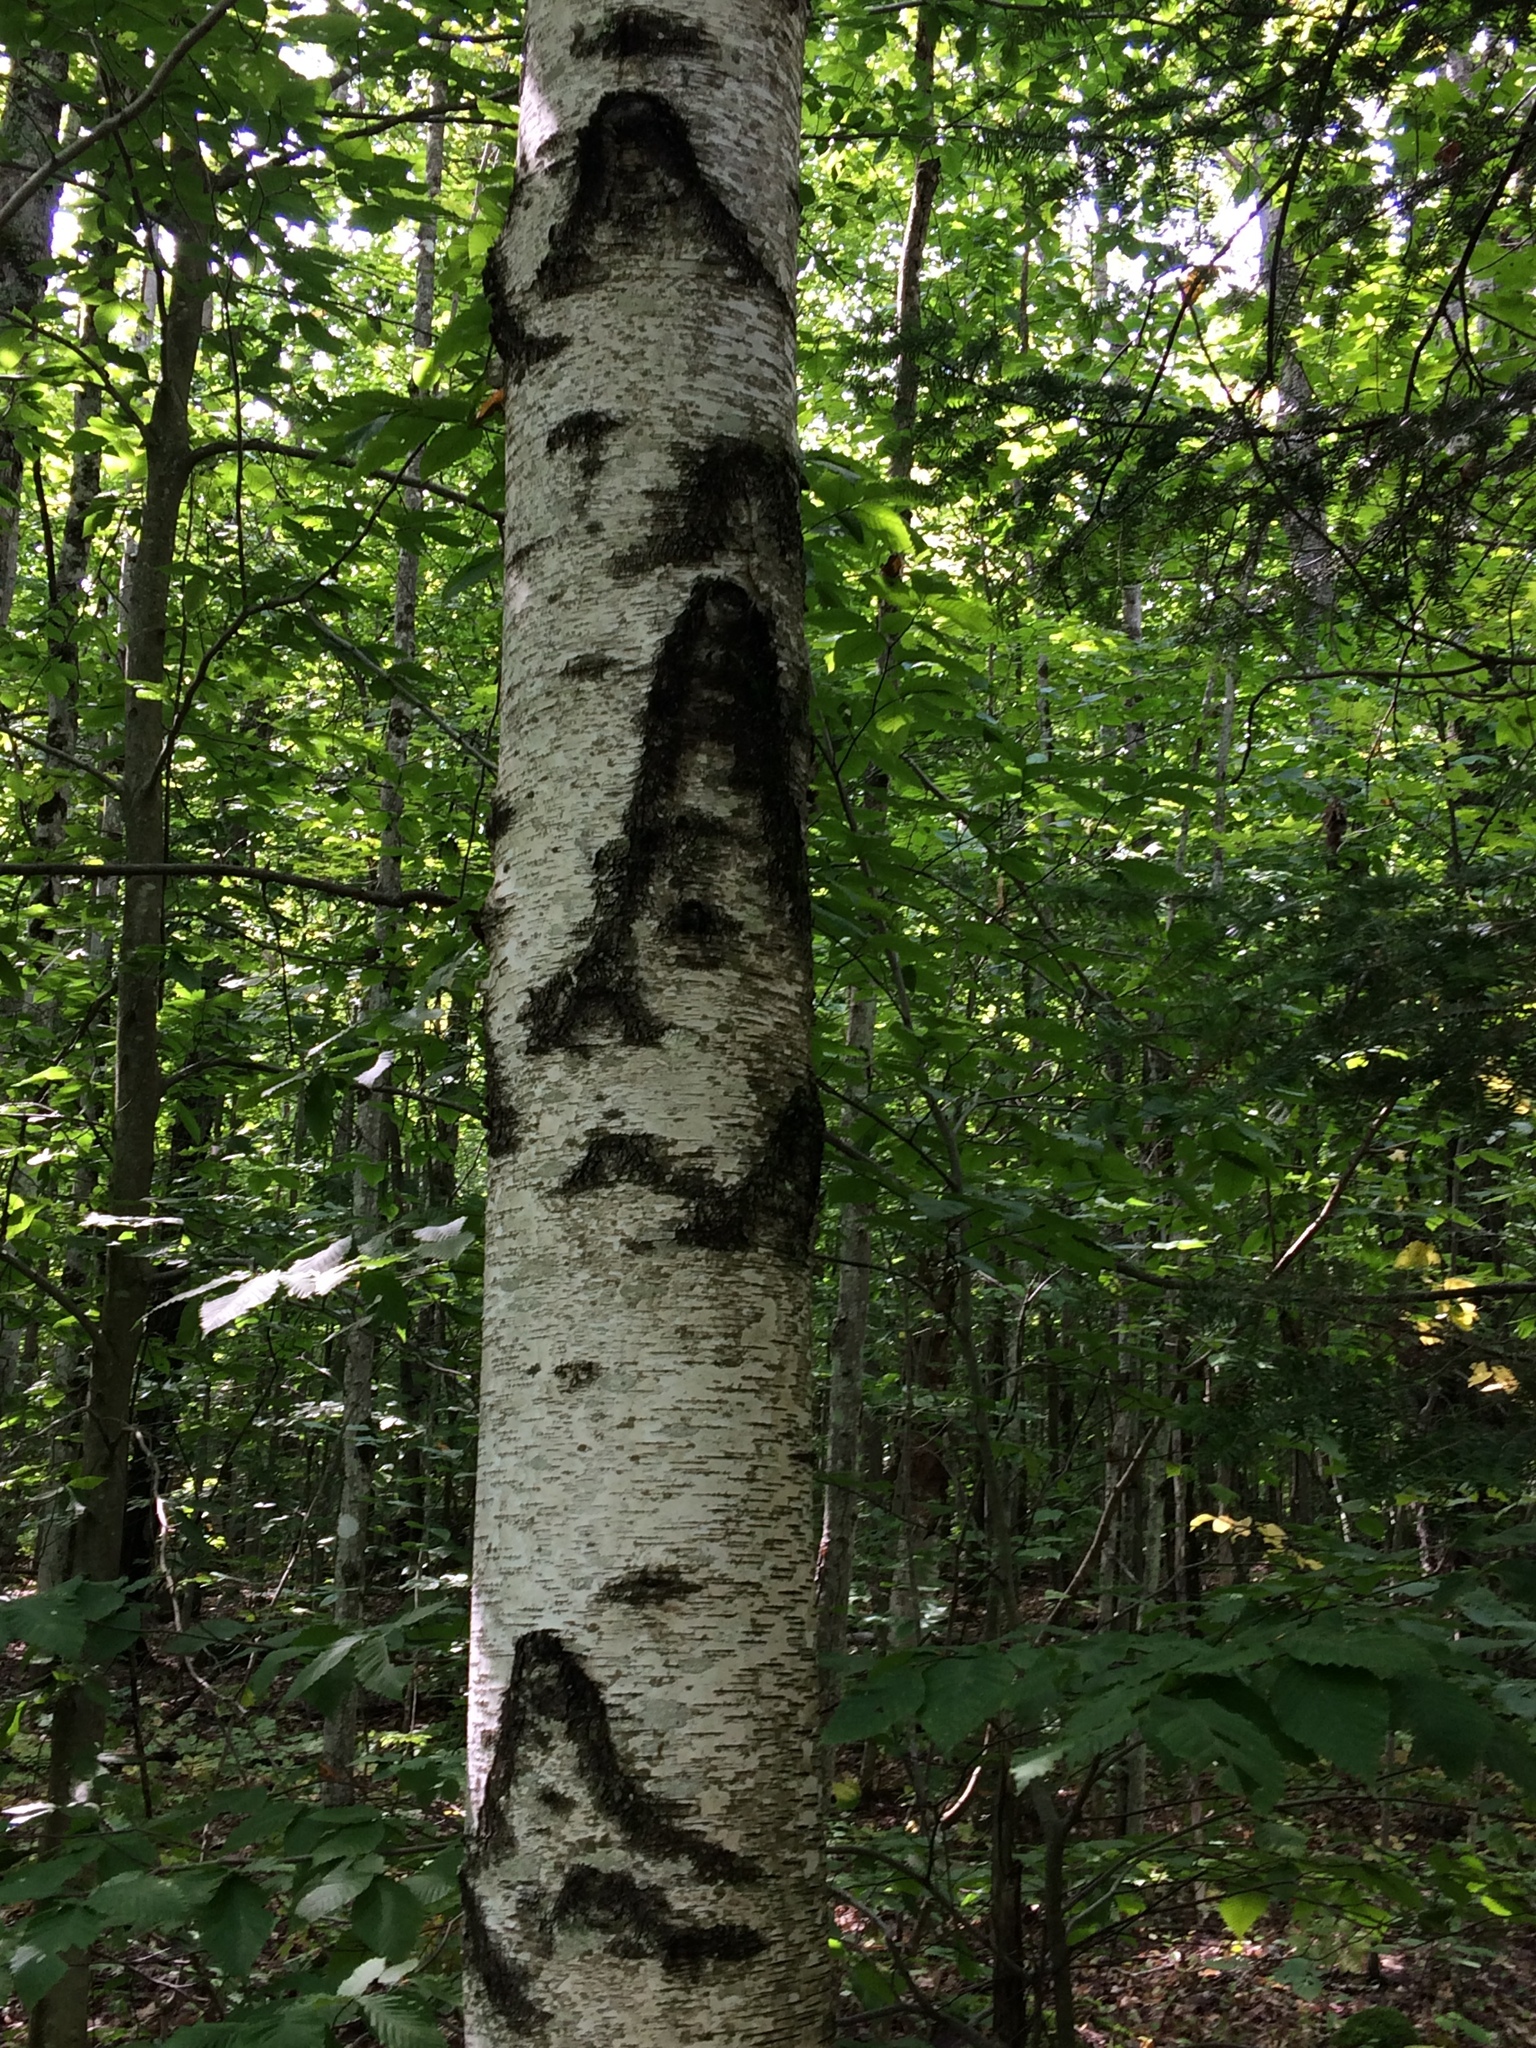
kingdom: Plantae
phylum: Tracheophyta
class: Magnoliopsida
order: Fagales
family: Betulaceae
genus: Betula
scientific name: Betula populifolia
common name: Fire birch
